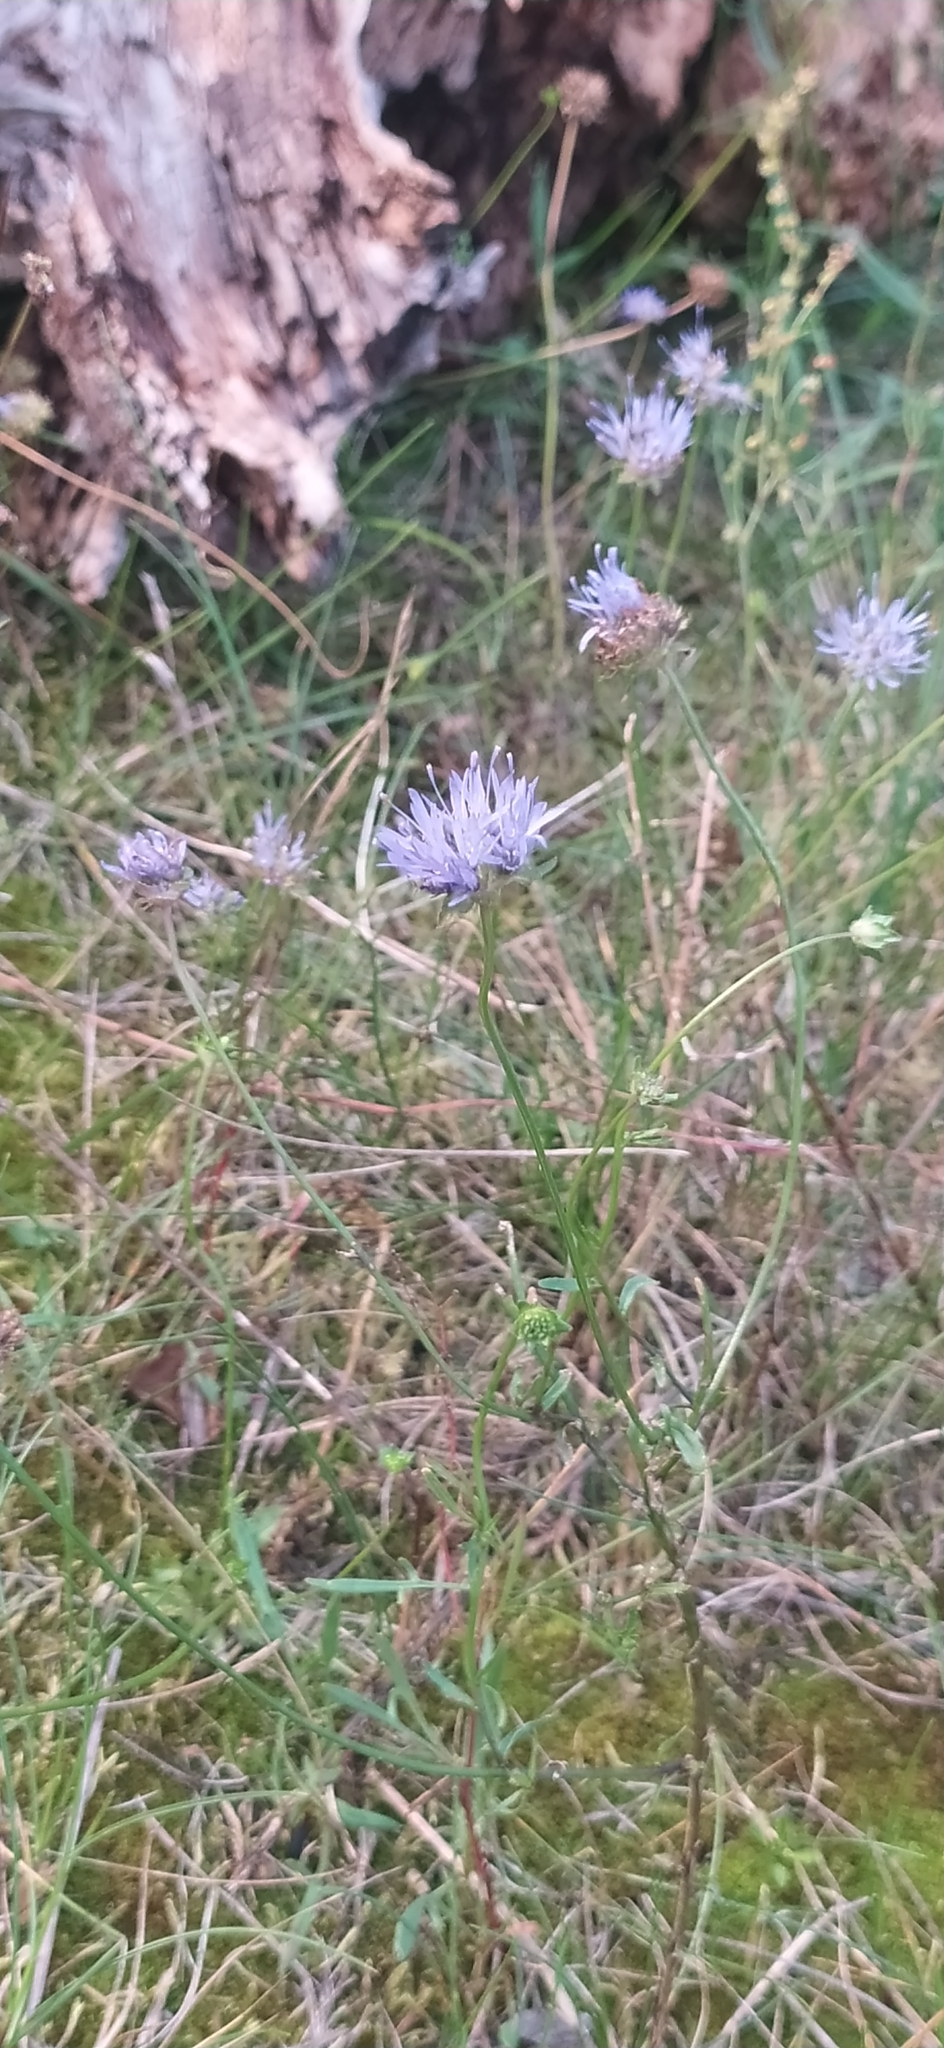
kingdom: Plantae
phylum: Tracheophyta
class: Magnoliopsida
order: Asterales
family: Campanulaceae
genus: Jasione
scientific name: Jasione montana
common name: Sheep's-bit
